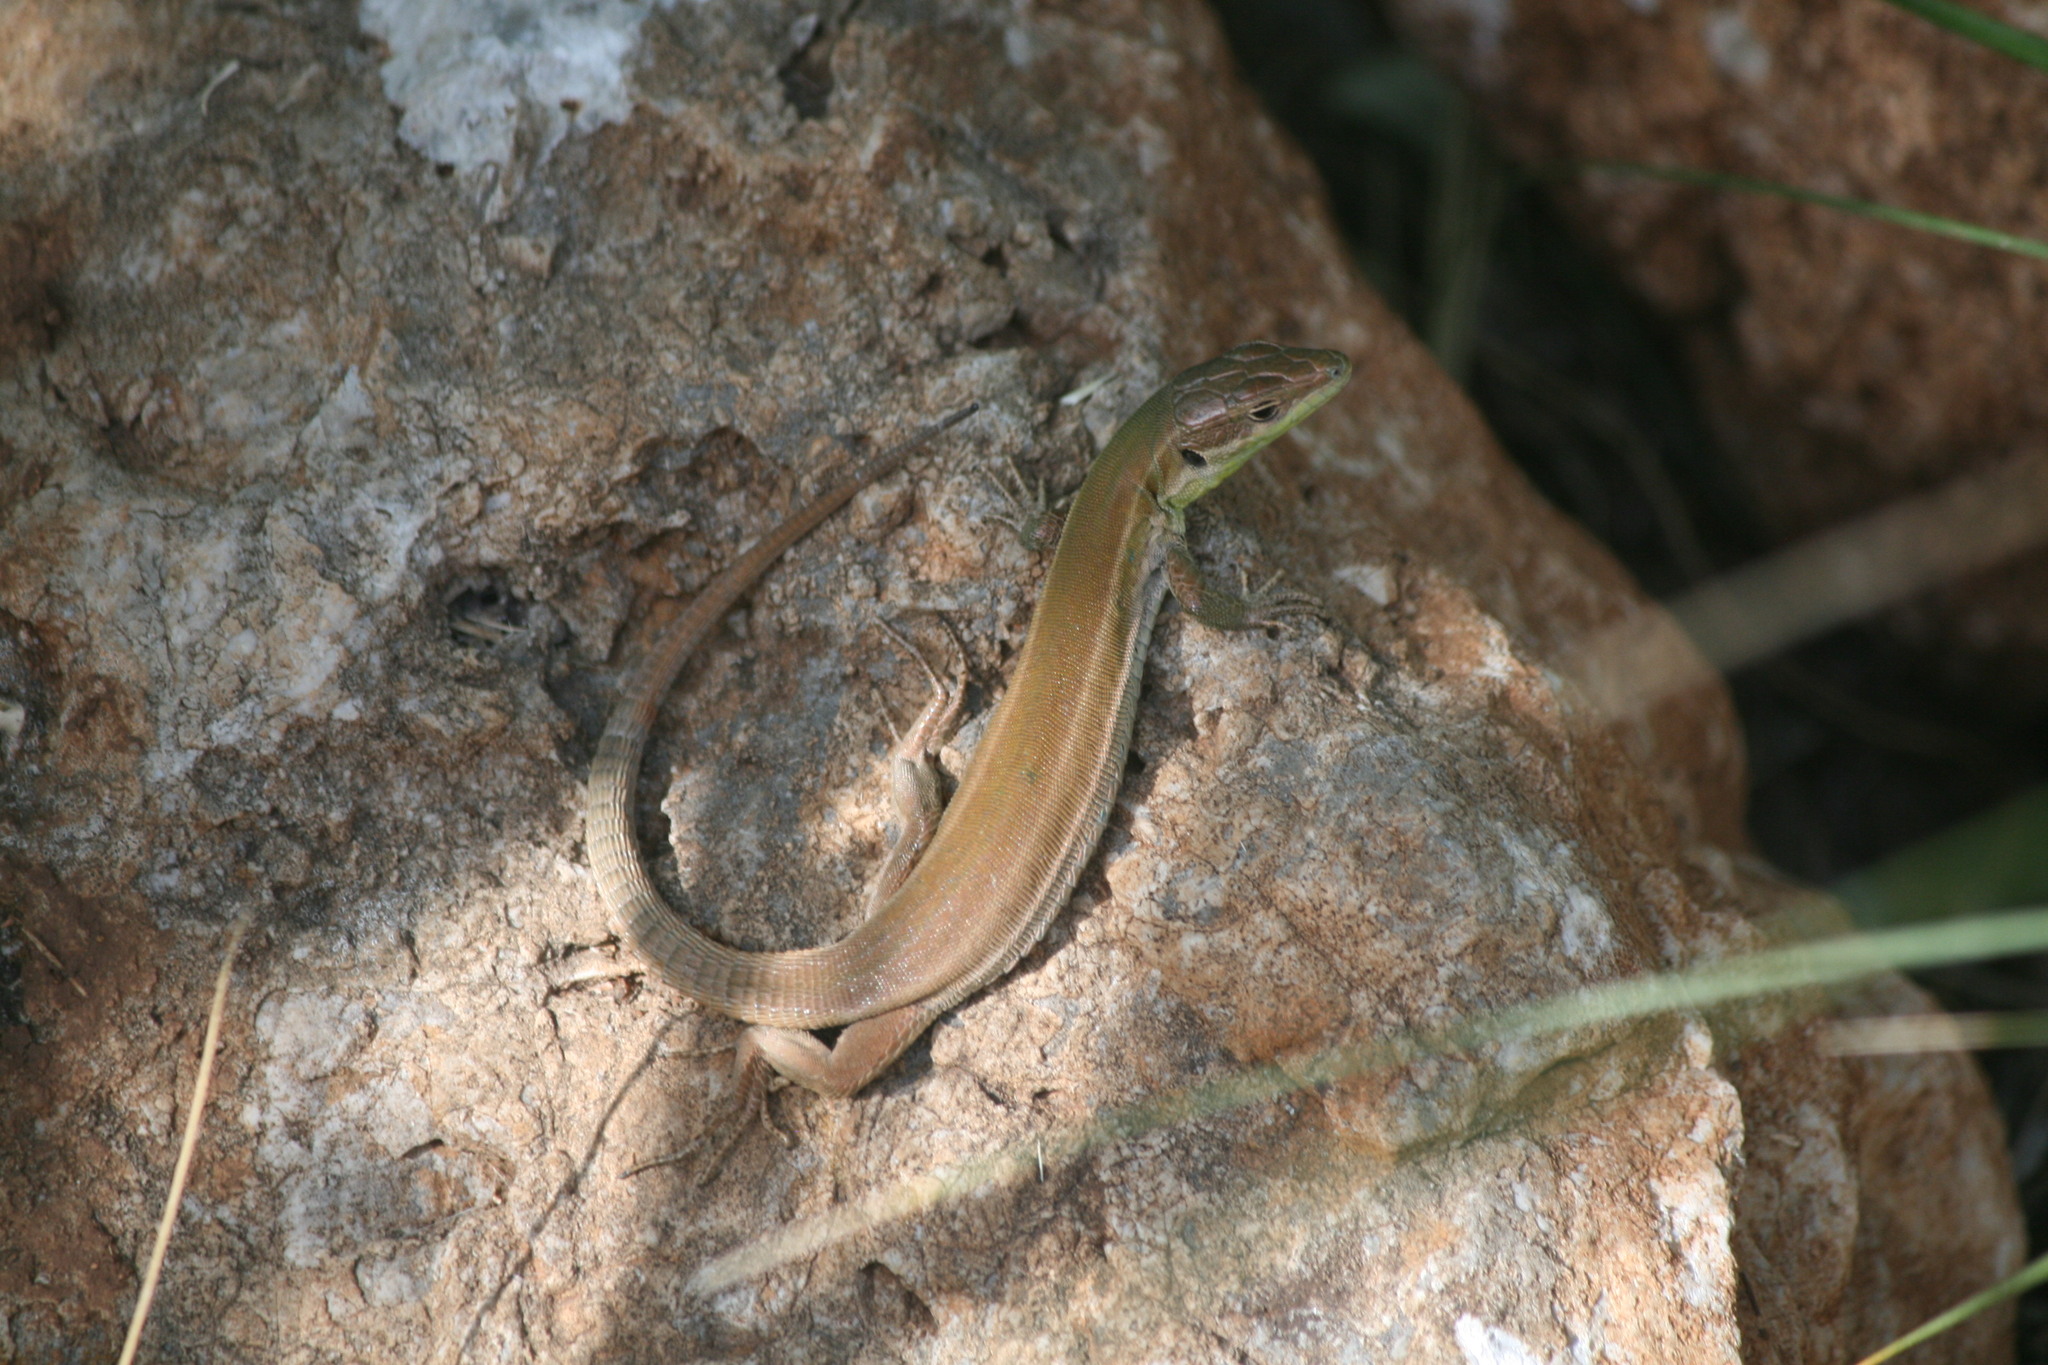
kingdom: Animalia
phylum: Chordata
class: Squamata
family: Lacertidae
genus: Podarcis
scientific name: Podarcis waglerianus
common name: Sicilian wall lizard
